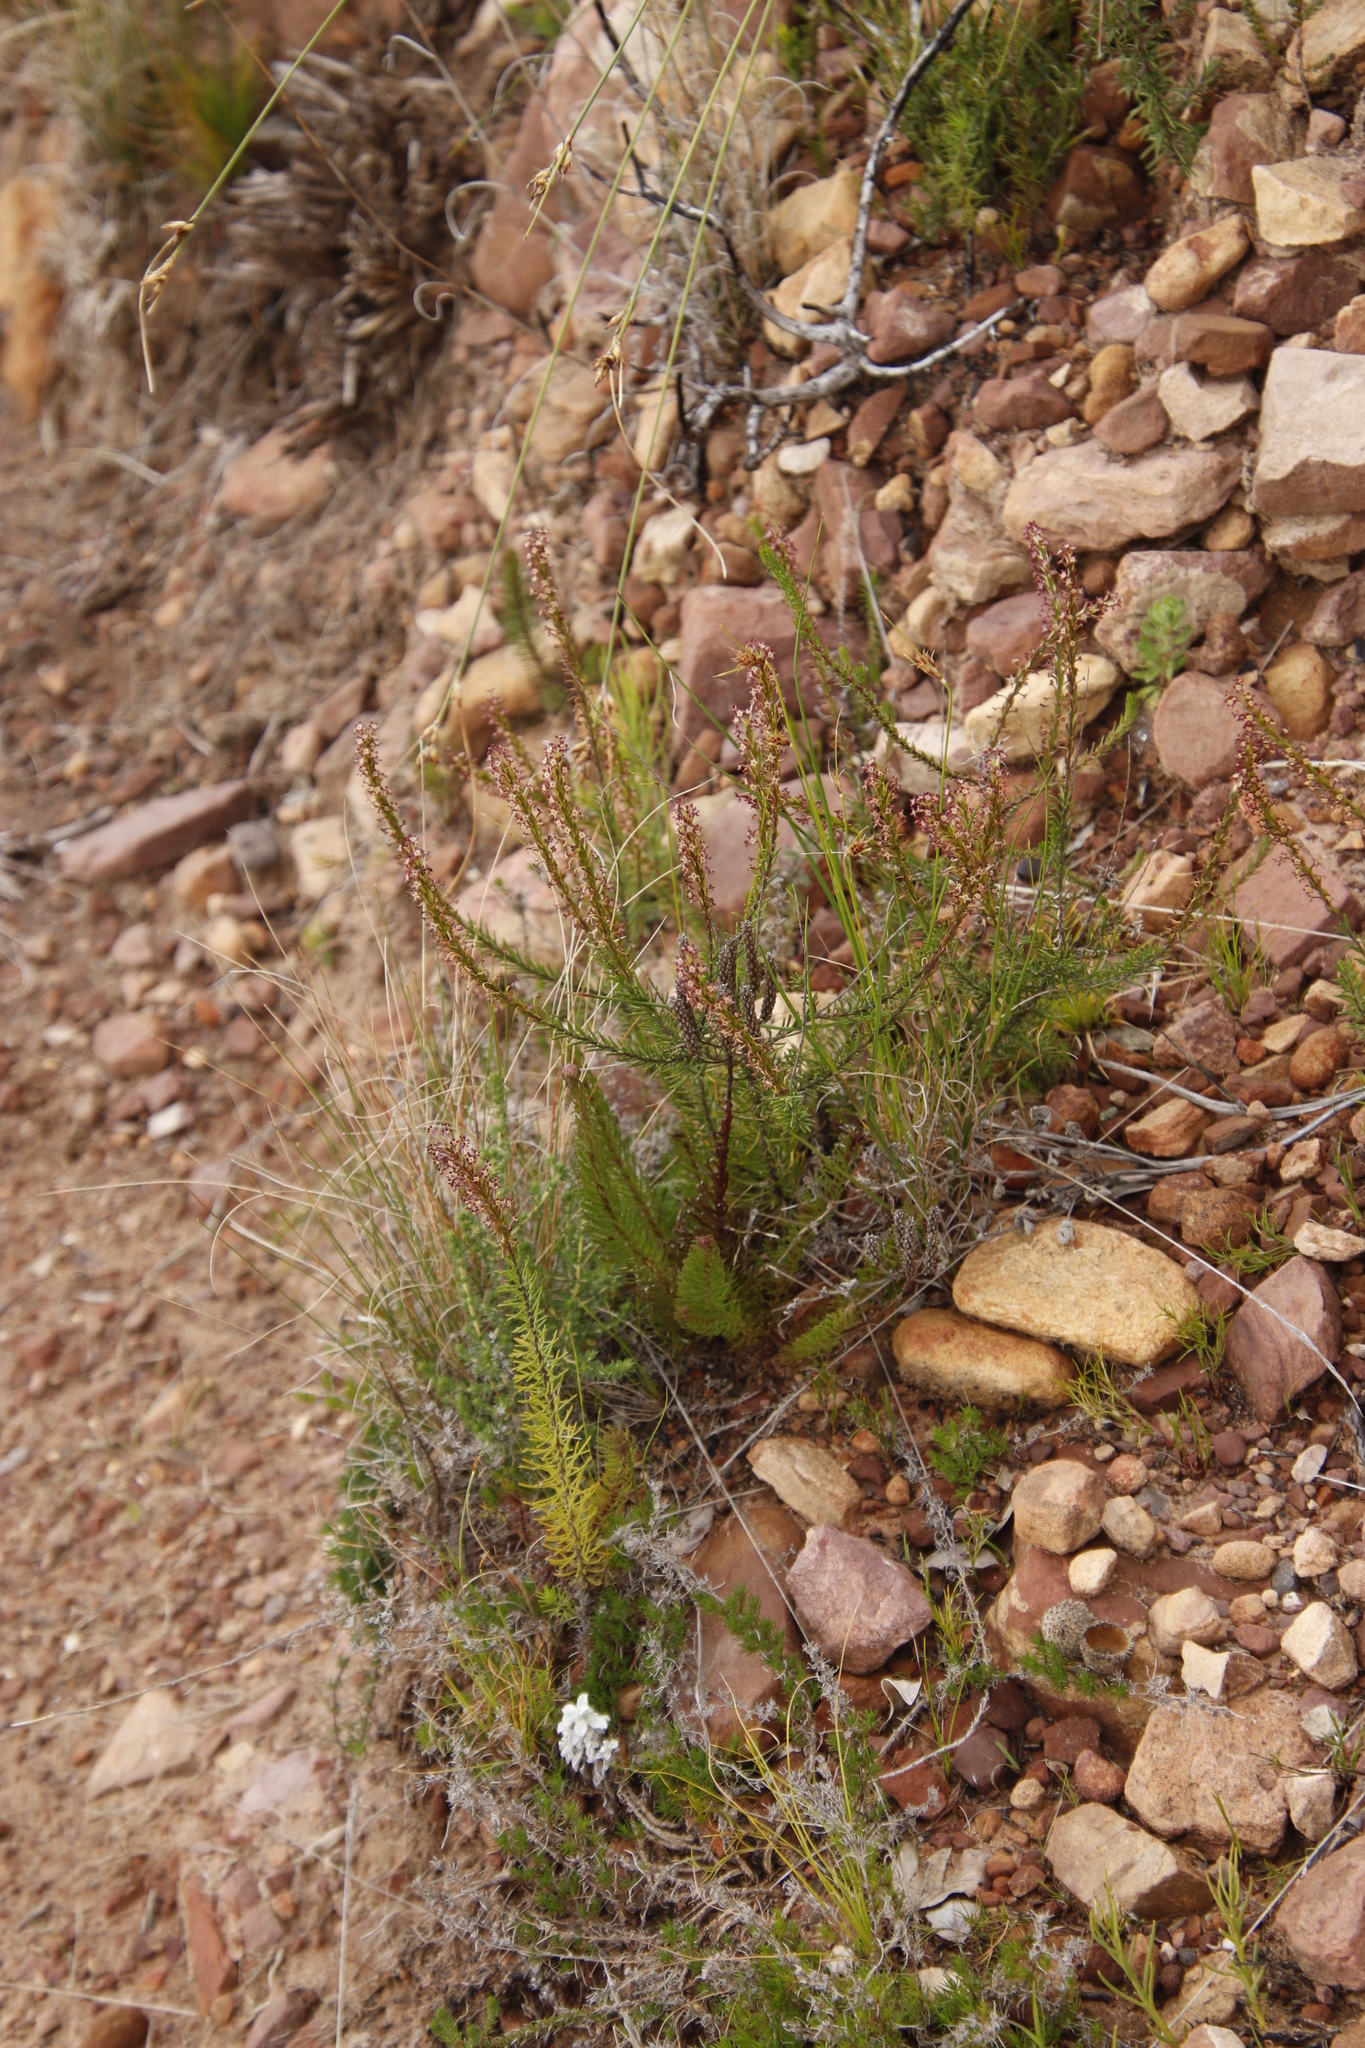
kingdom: Plantae
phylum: Tracheophyta
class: Magnoliopsida
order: Lamiales
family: Scrophulariaceae
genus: Microdon
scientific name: Microdon dubius
